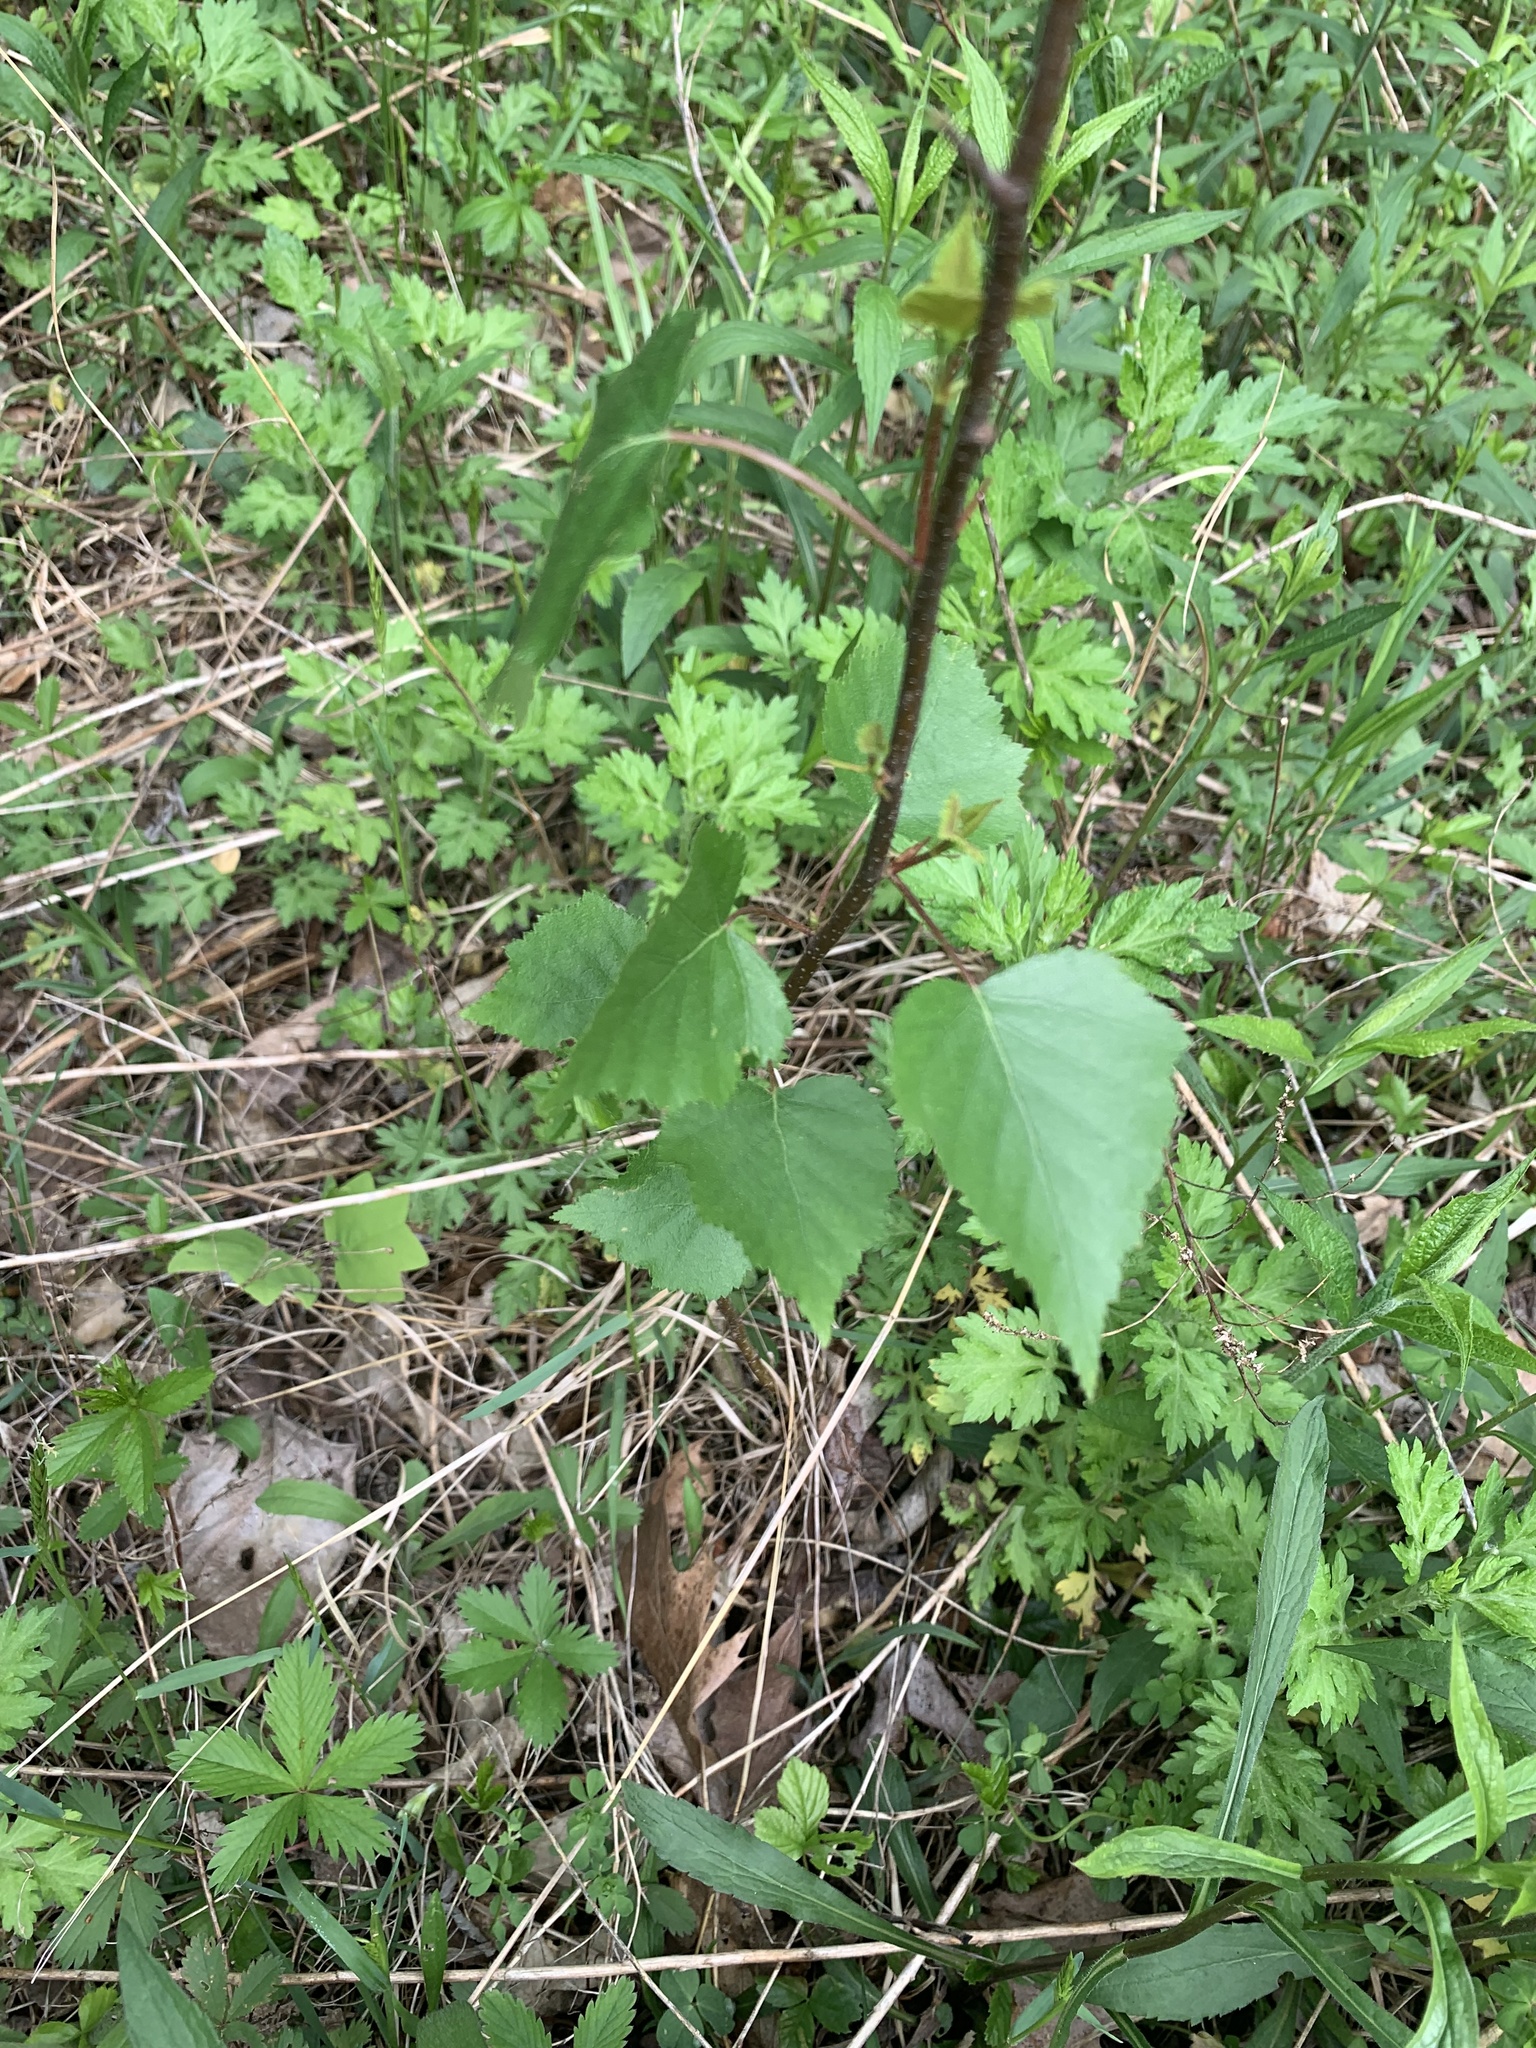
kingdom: Plantae
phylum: Tracheophyta
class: Magnoliopsida
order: Fagales
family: Betulaceae
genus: Betula
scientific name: Betula populifolia
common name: Fire birch
